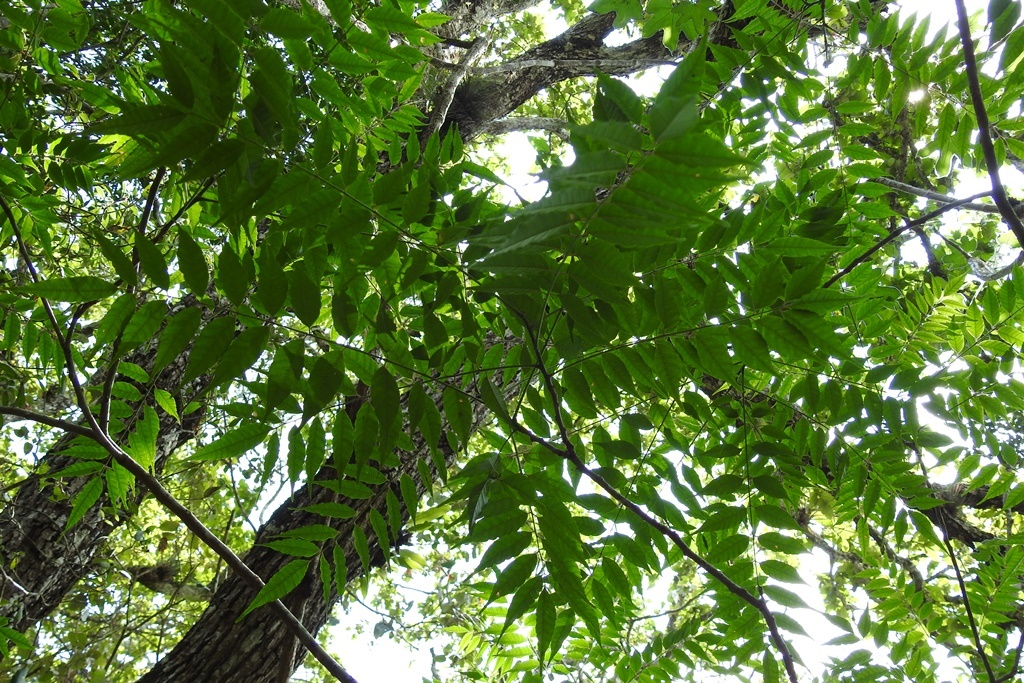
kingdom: Plantae
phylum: Tracheophyta
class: Magnoliopsida
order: Fabales
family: Fabaceae
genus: Vatairea
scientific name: Vatairea lundellii
